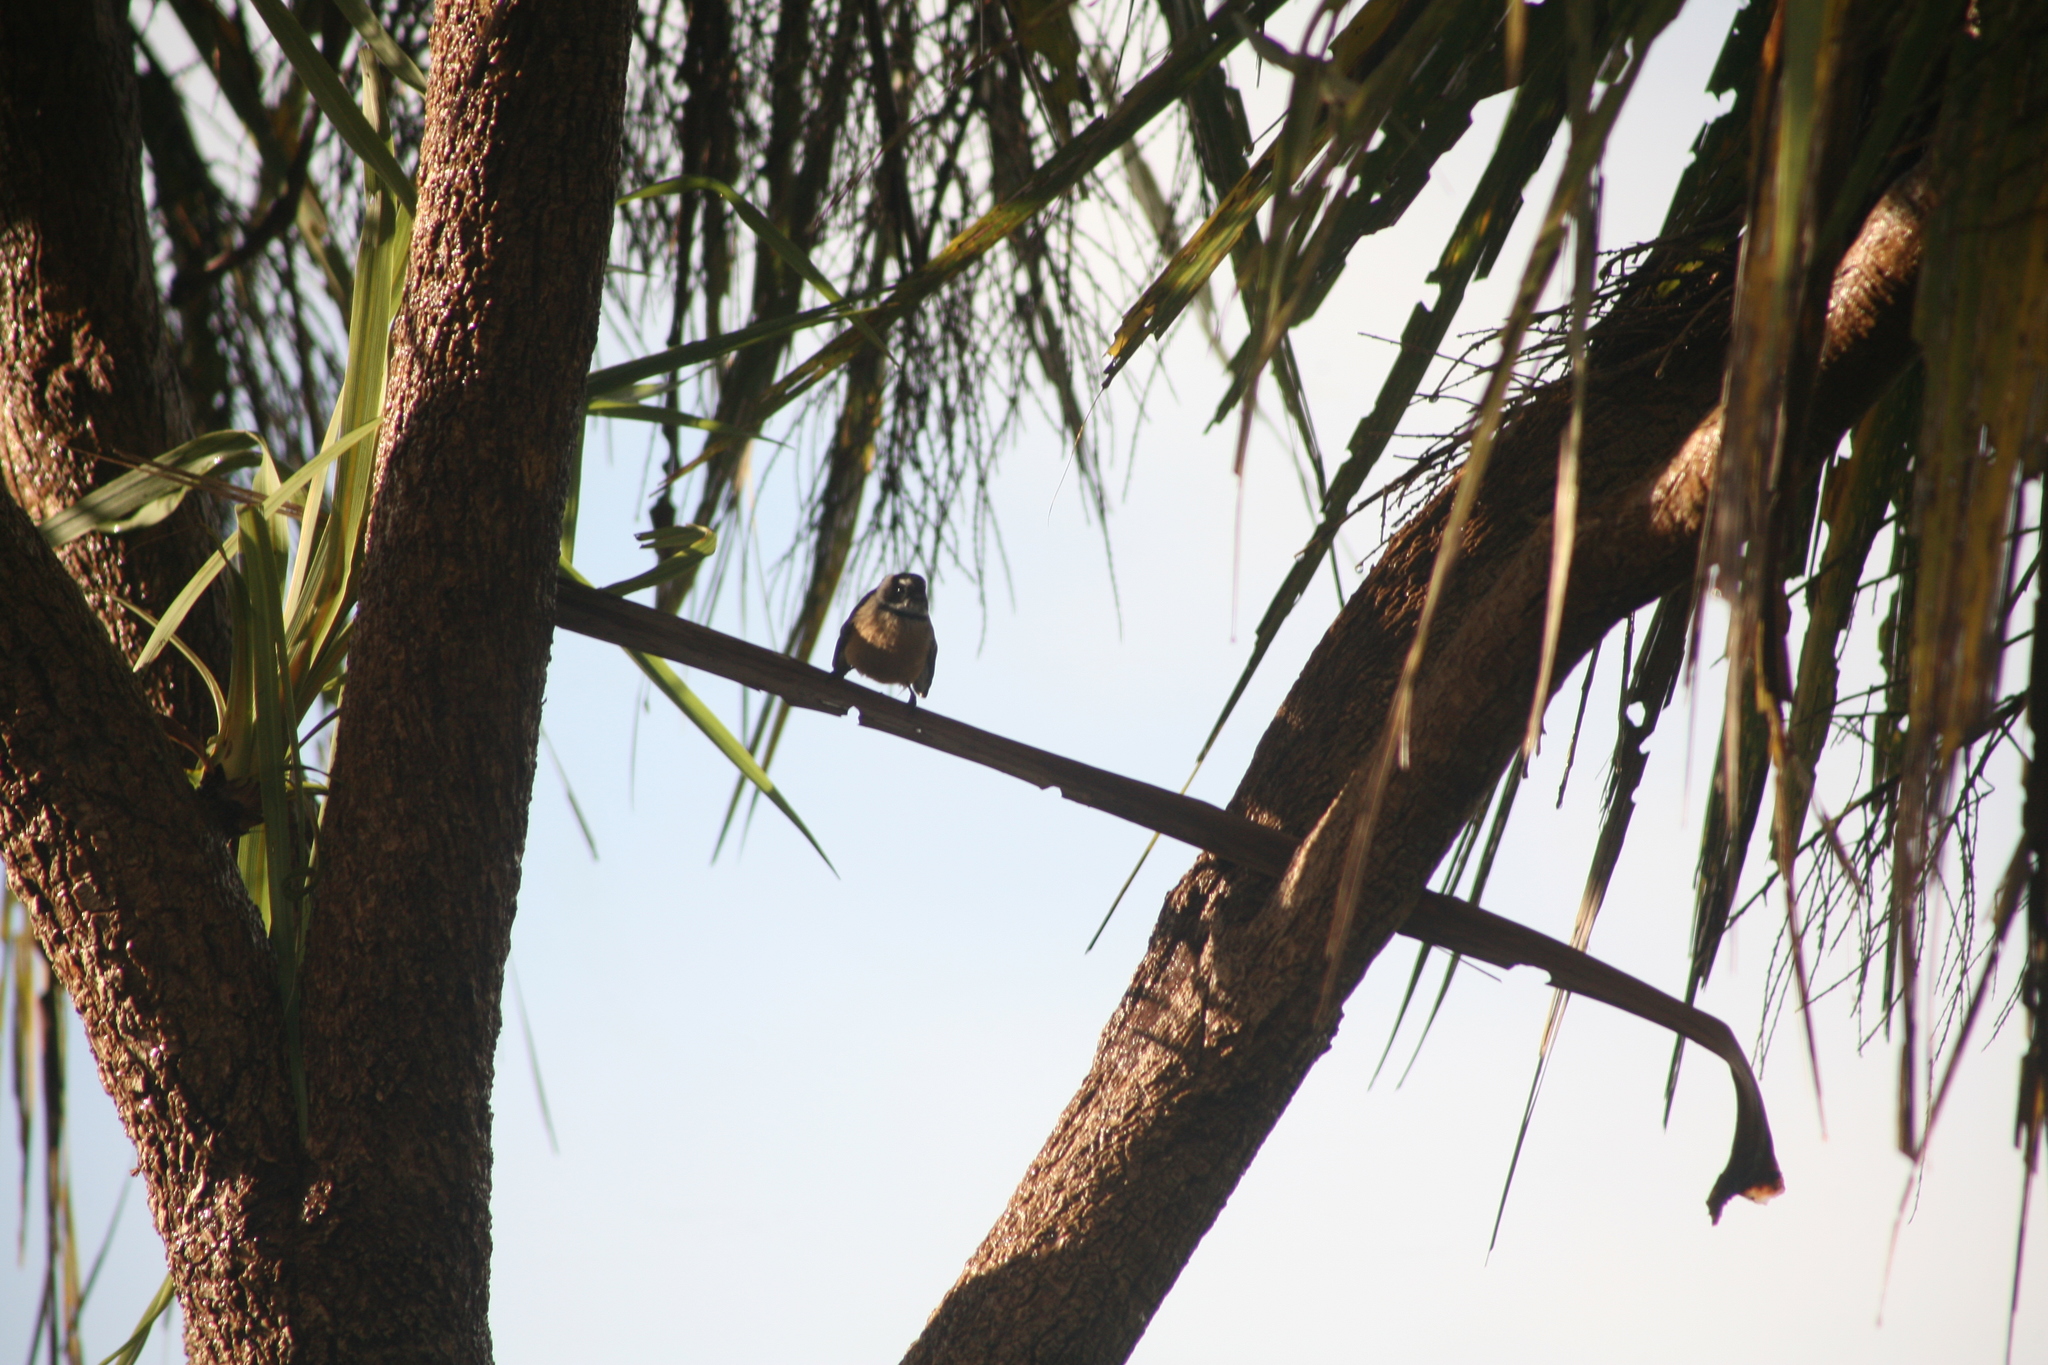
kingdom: Animalia
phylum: Chordata
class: Aves
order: Passeriformes
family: Rhipiduridae
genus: Rhipidura
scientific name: Rhipidura fuliginosa
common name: New zealand fantail
